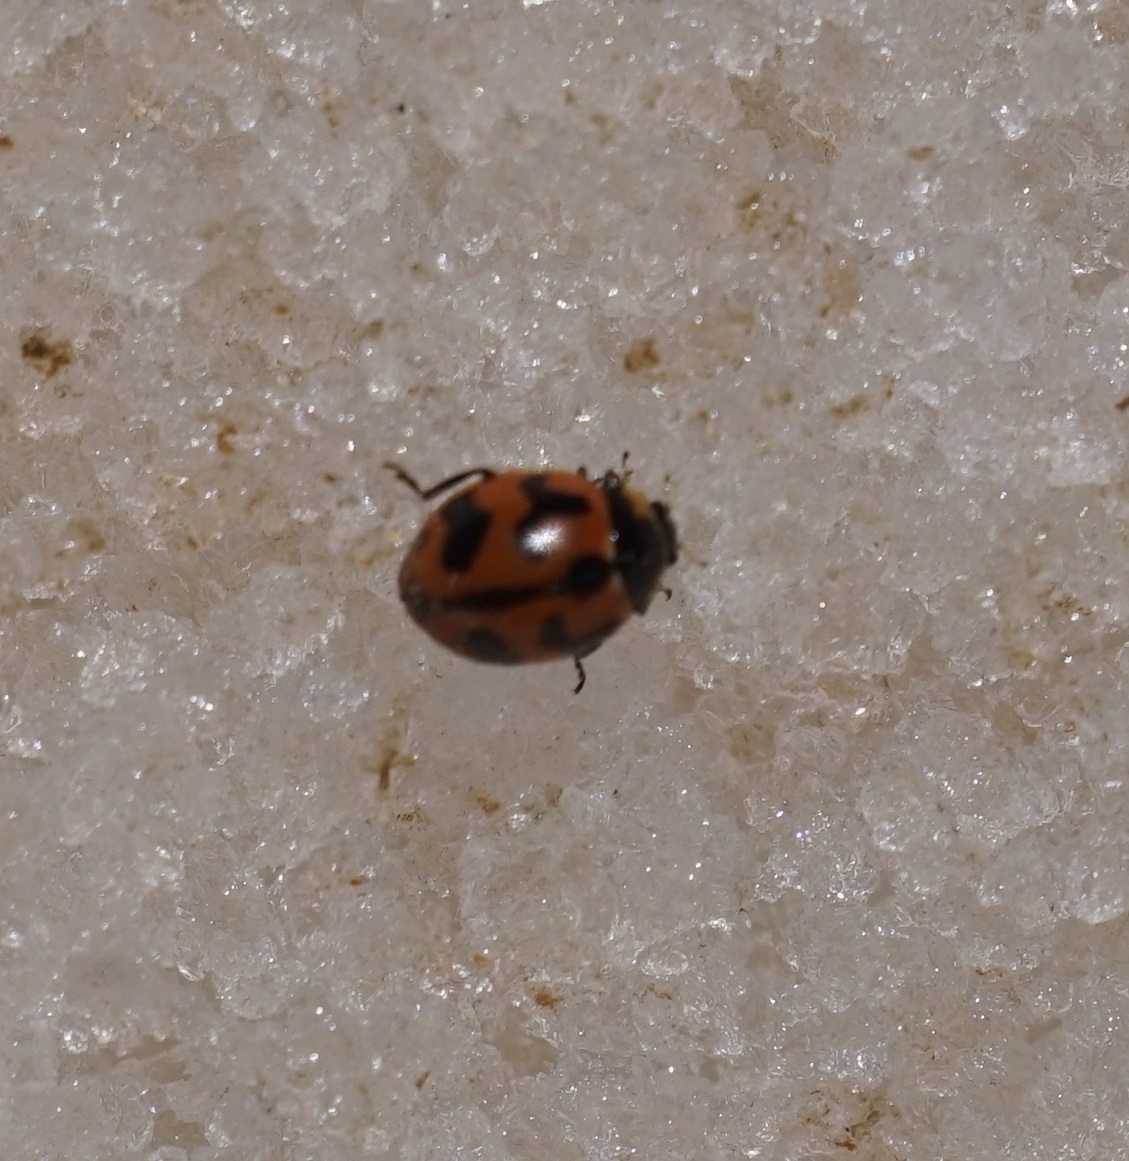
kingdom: Animalia
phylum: Arthropoda
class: Insecta
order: Coleoptera
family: Coccinellidae
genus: Coccinella
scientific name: Coccinella transversalis
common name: Transverse lady beetle
